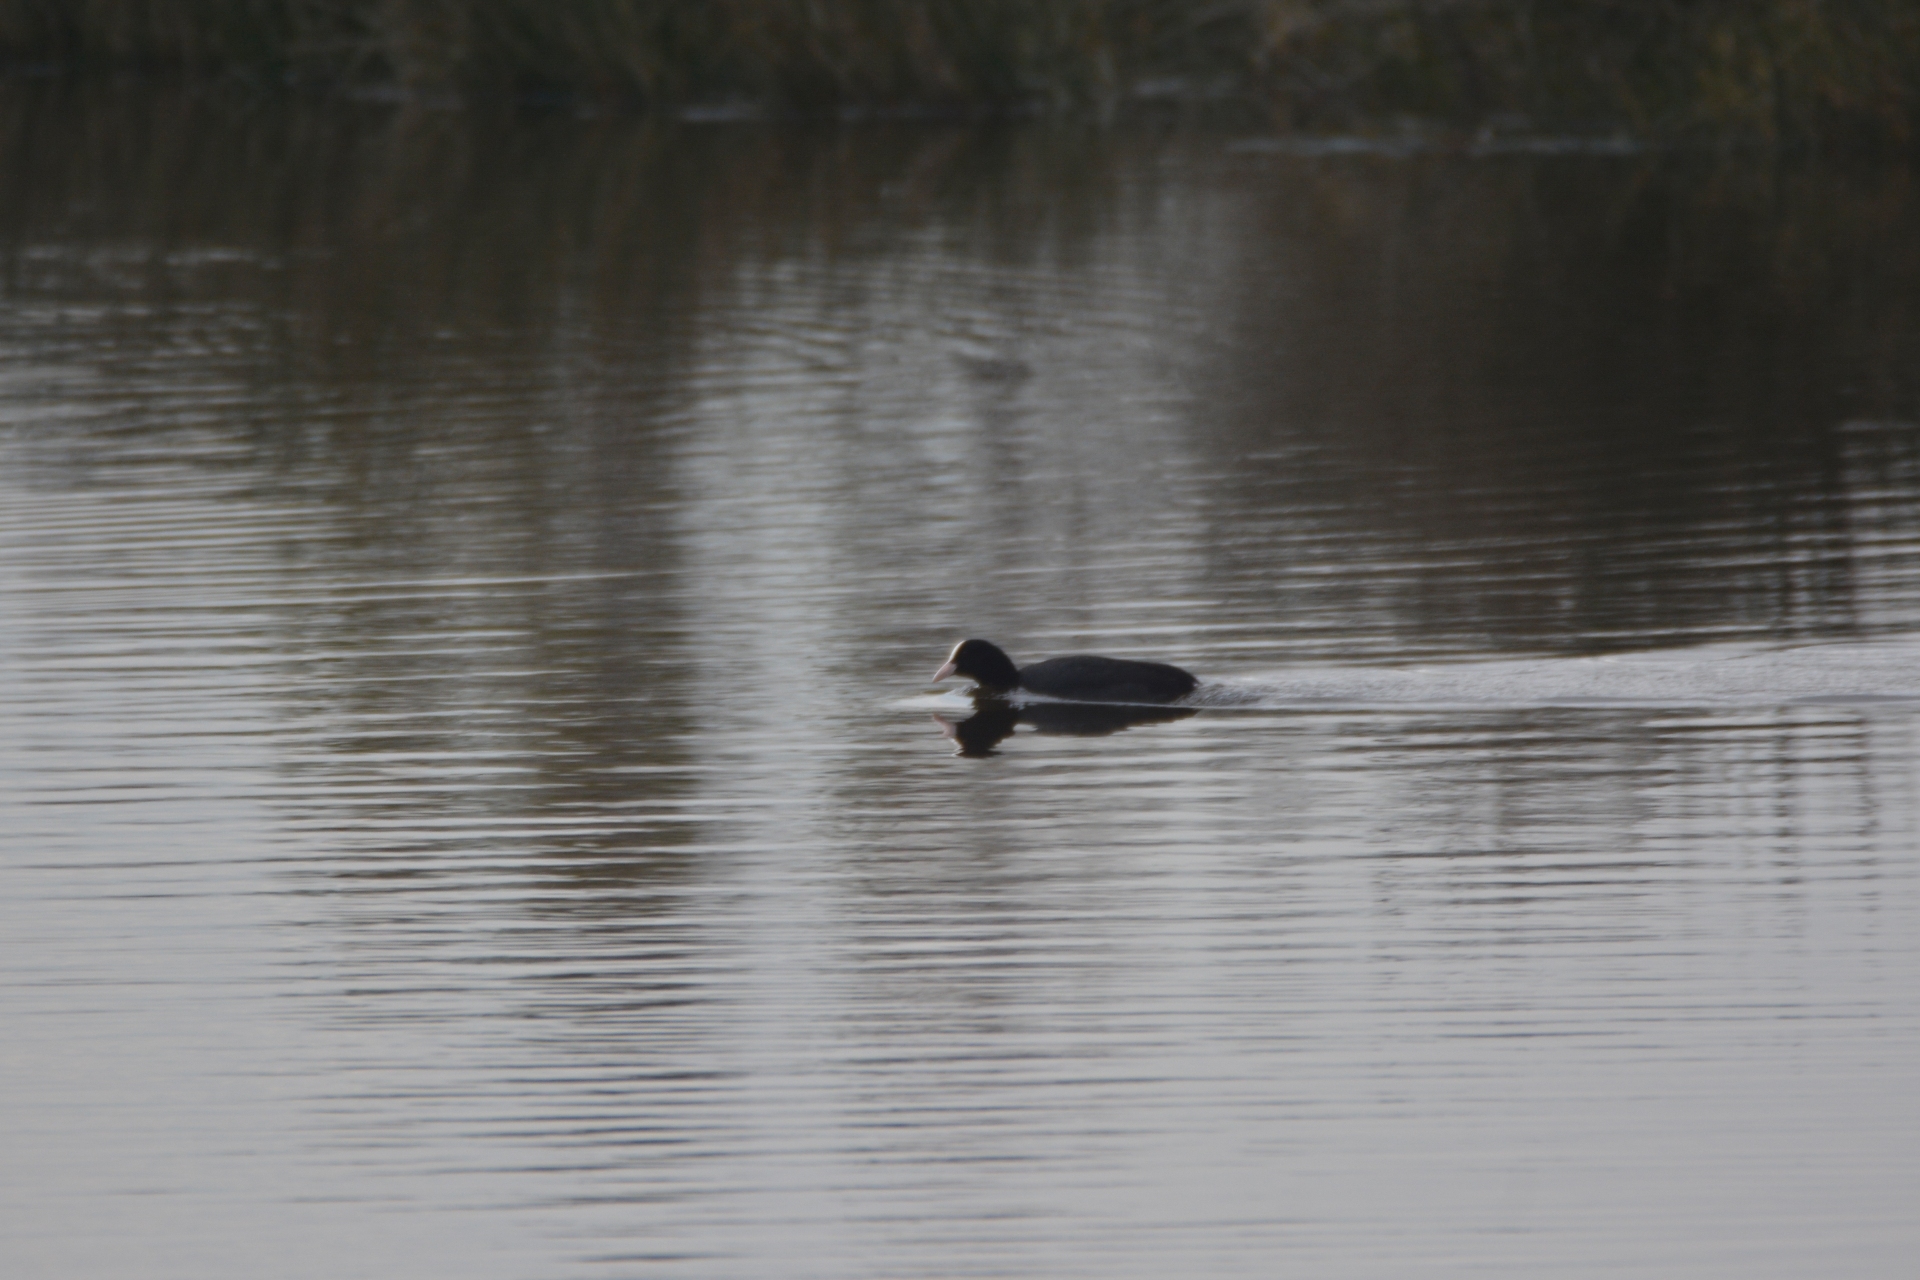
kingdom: Animalia
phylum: Chordata
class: Aves
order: Gruiformes
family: Rallidae
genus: Fulica
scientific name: Fulica atra
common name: Eurasian coot
